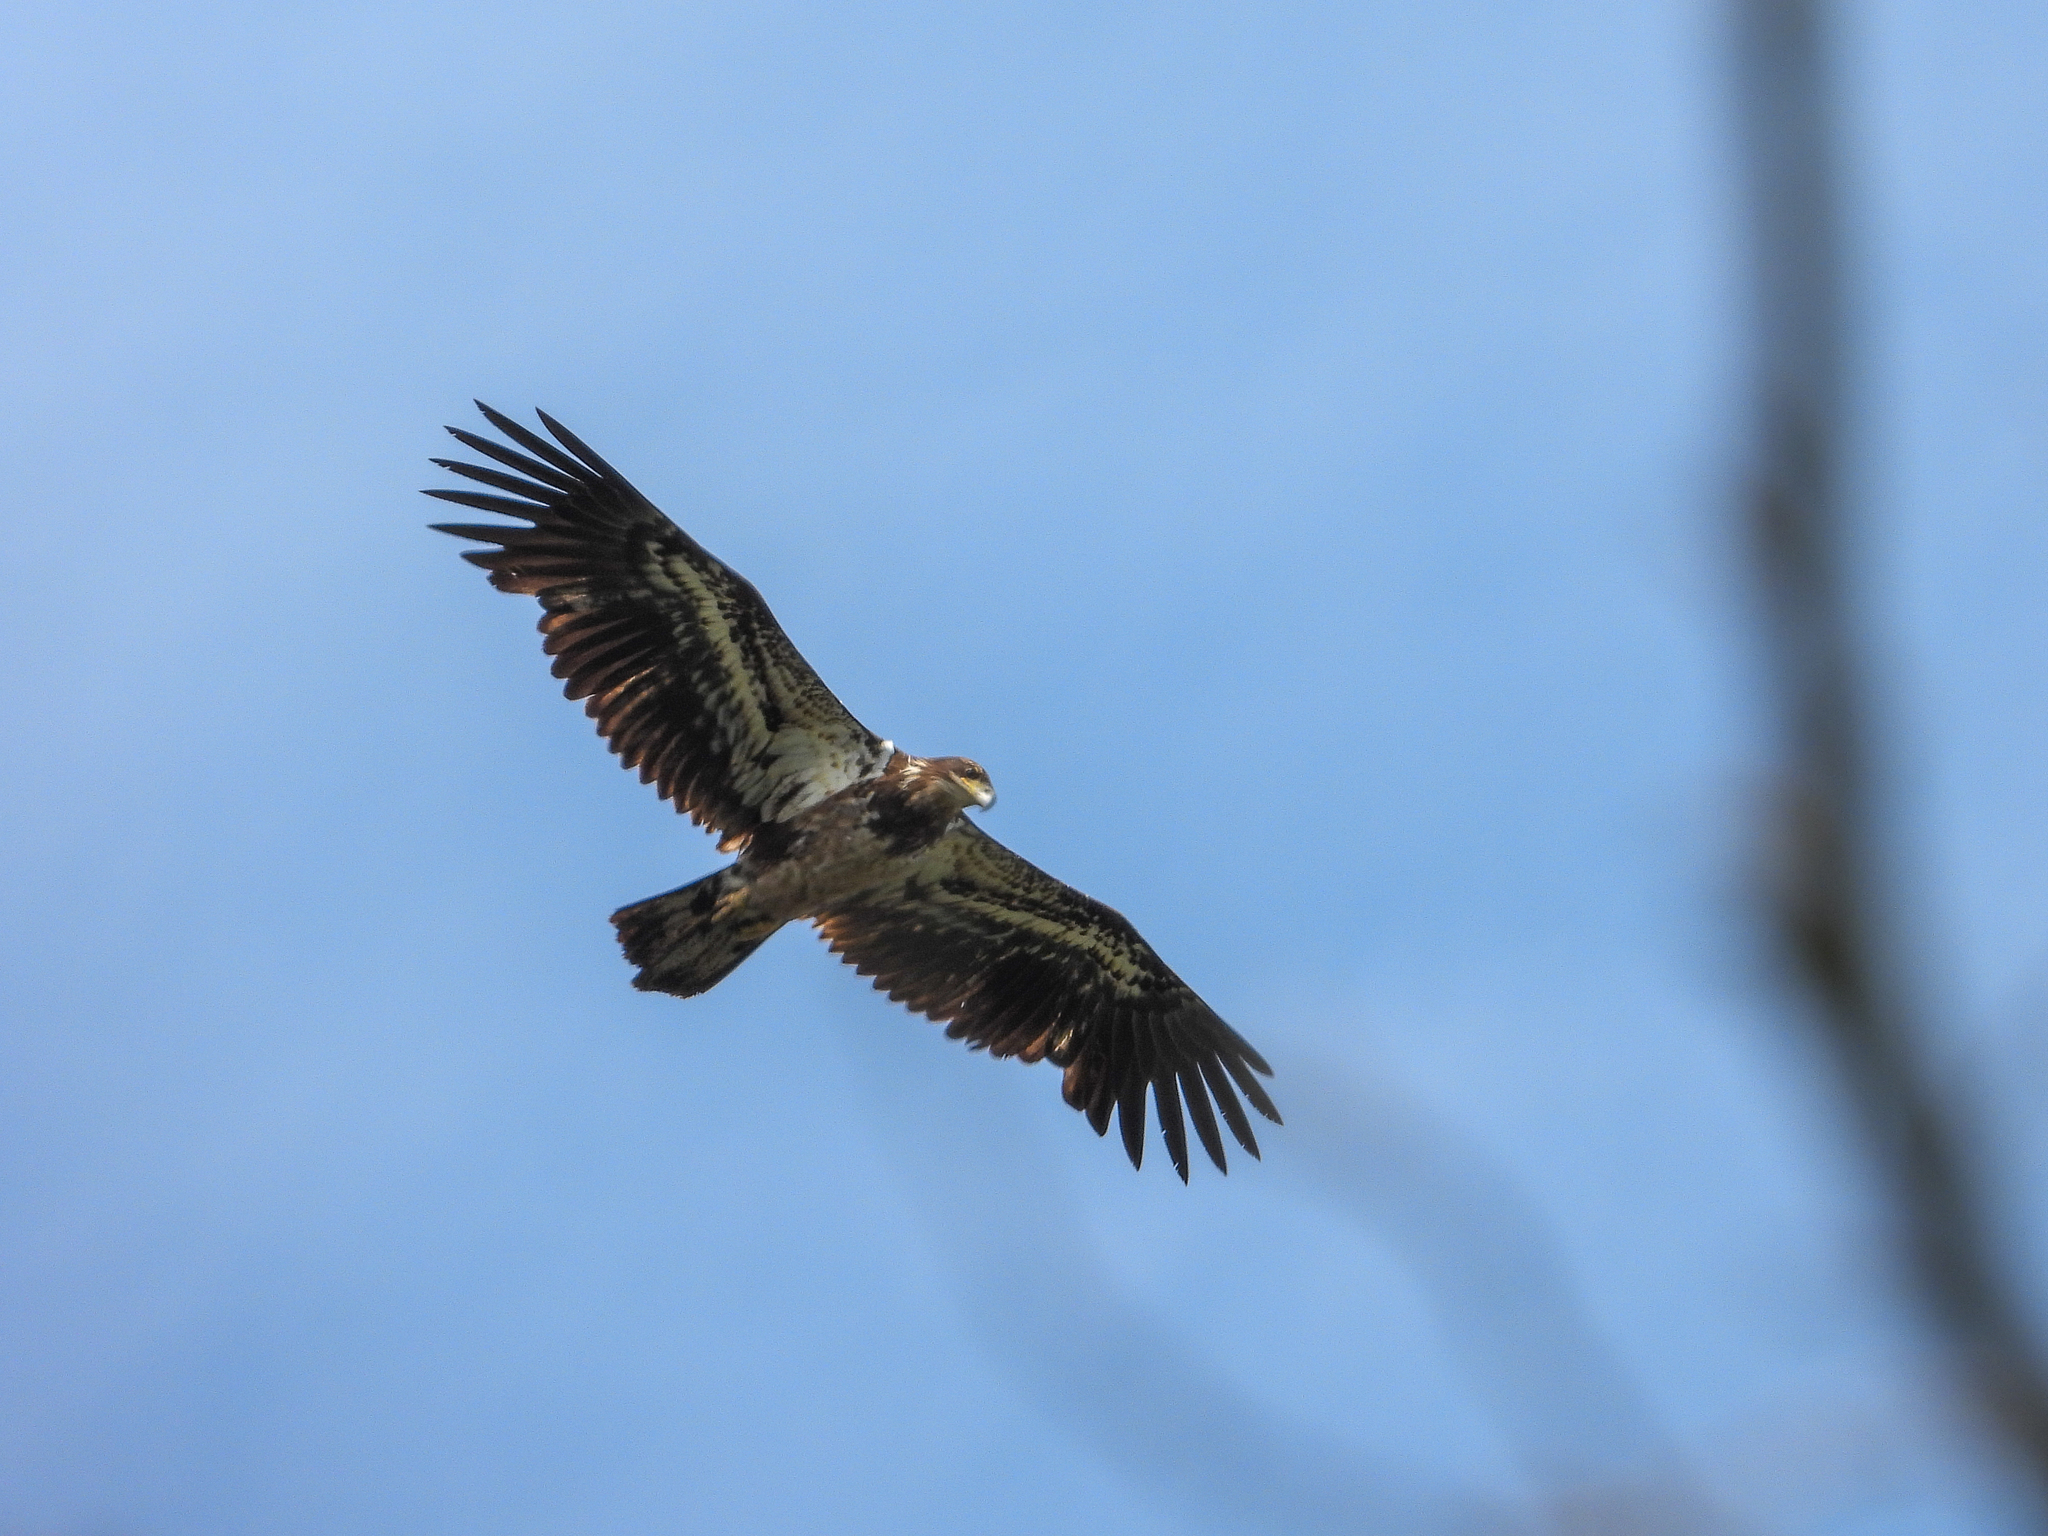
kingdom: Animalia
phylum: Chordata
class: Aves
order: Accipitriformes
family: Accipitridae
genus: Haliaeetus
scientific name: Haliaeetus leucocephalus
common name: Bald eagle
